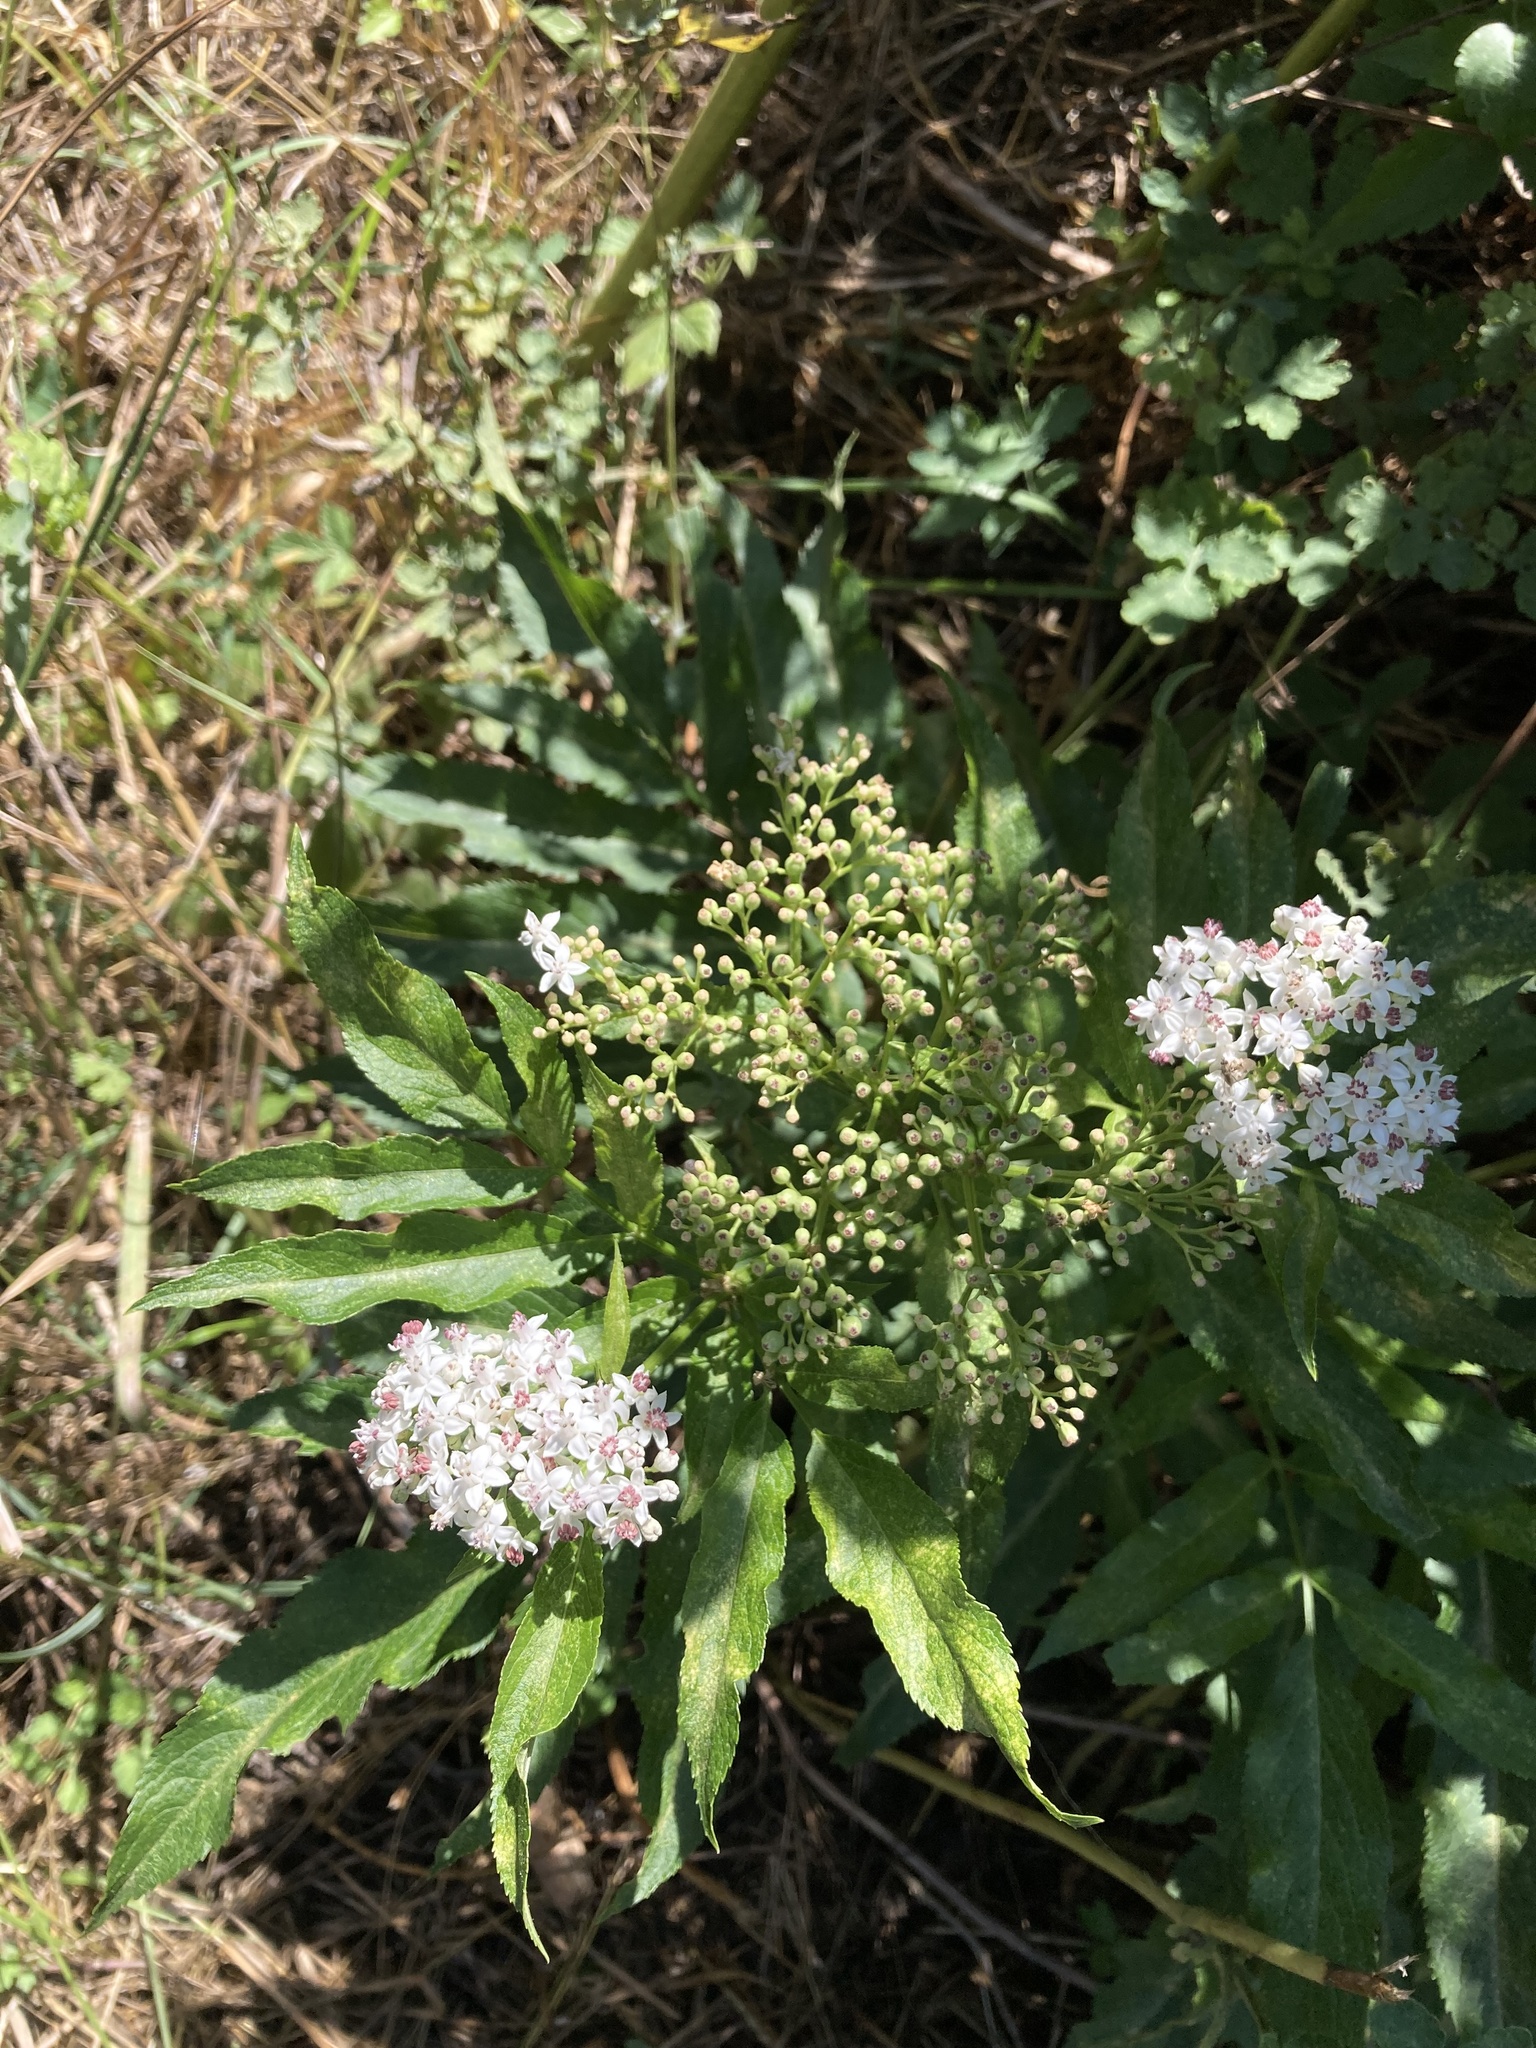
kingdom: Plantae
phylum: Tracheophyta
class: Magnoliopsida
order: Dipsacales
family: Viburnaceae
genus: Sambucus
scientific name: Sambucus ebulus
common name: Dwarf elder
